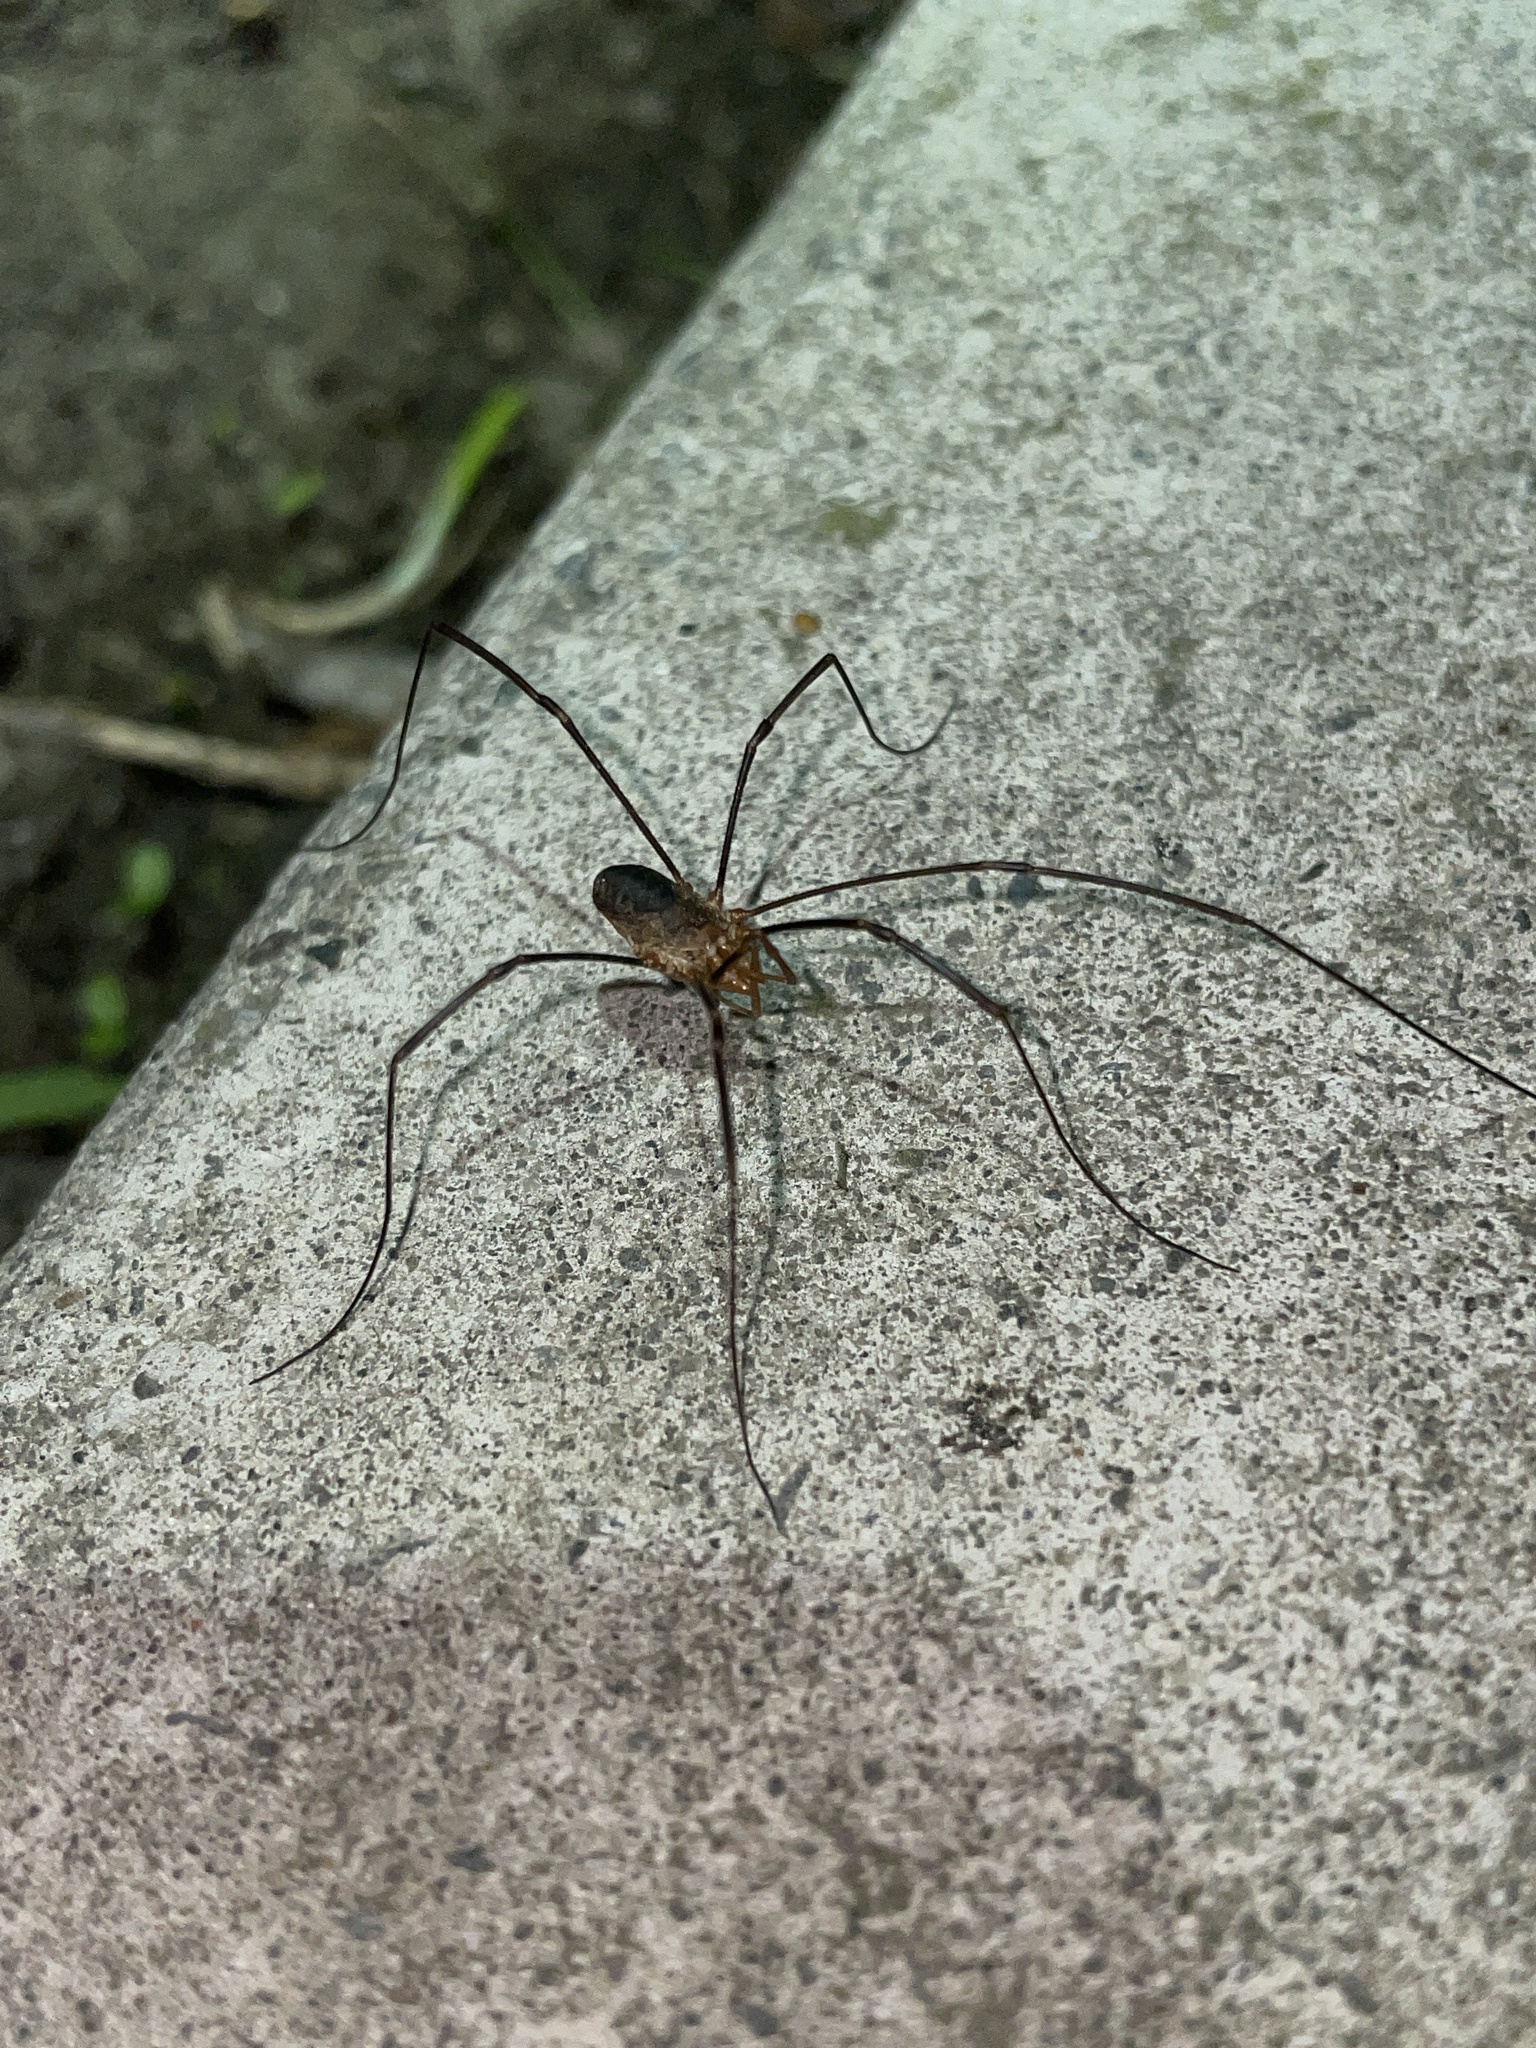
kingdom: Animalia
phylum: Arthropoda
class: Arachnida
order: Opiliones
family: Phalangiidae
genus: Phalangium
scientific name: Phalangium opilio
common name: Daddy longleg
